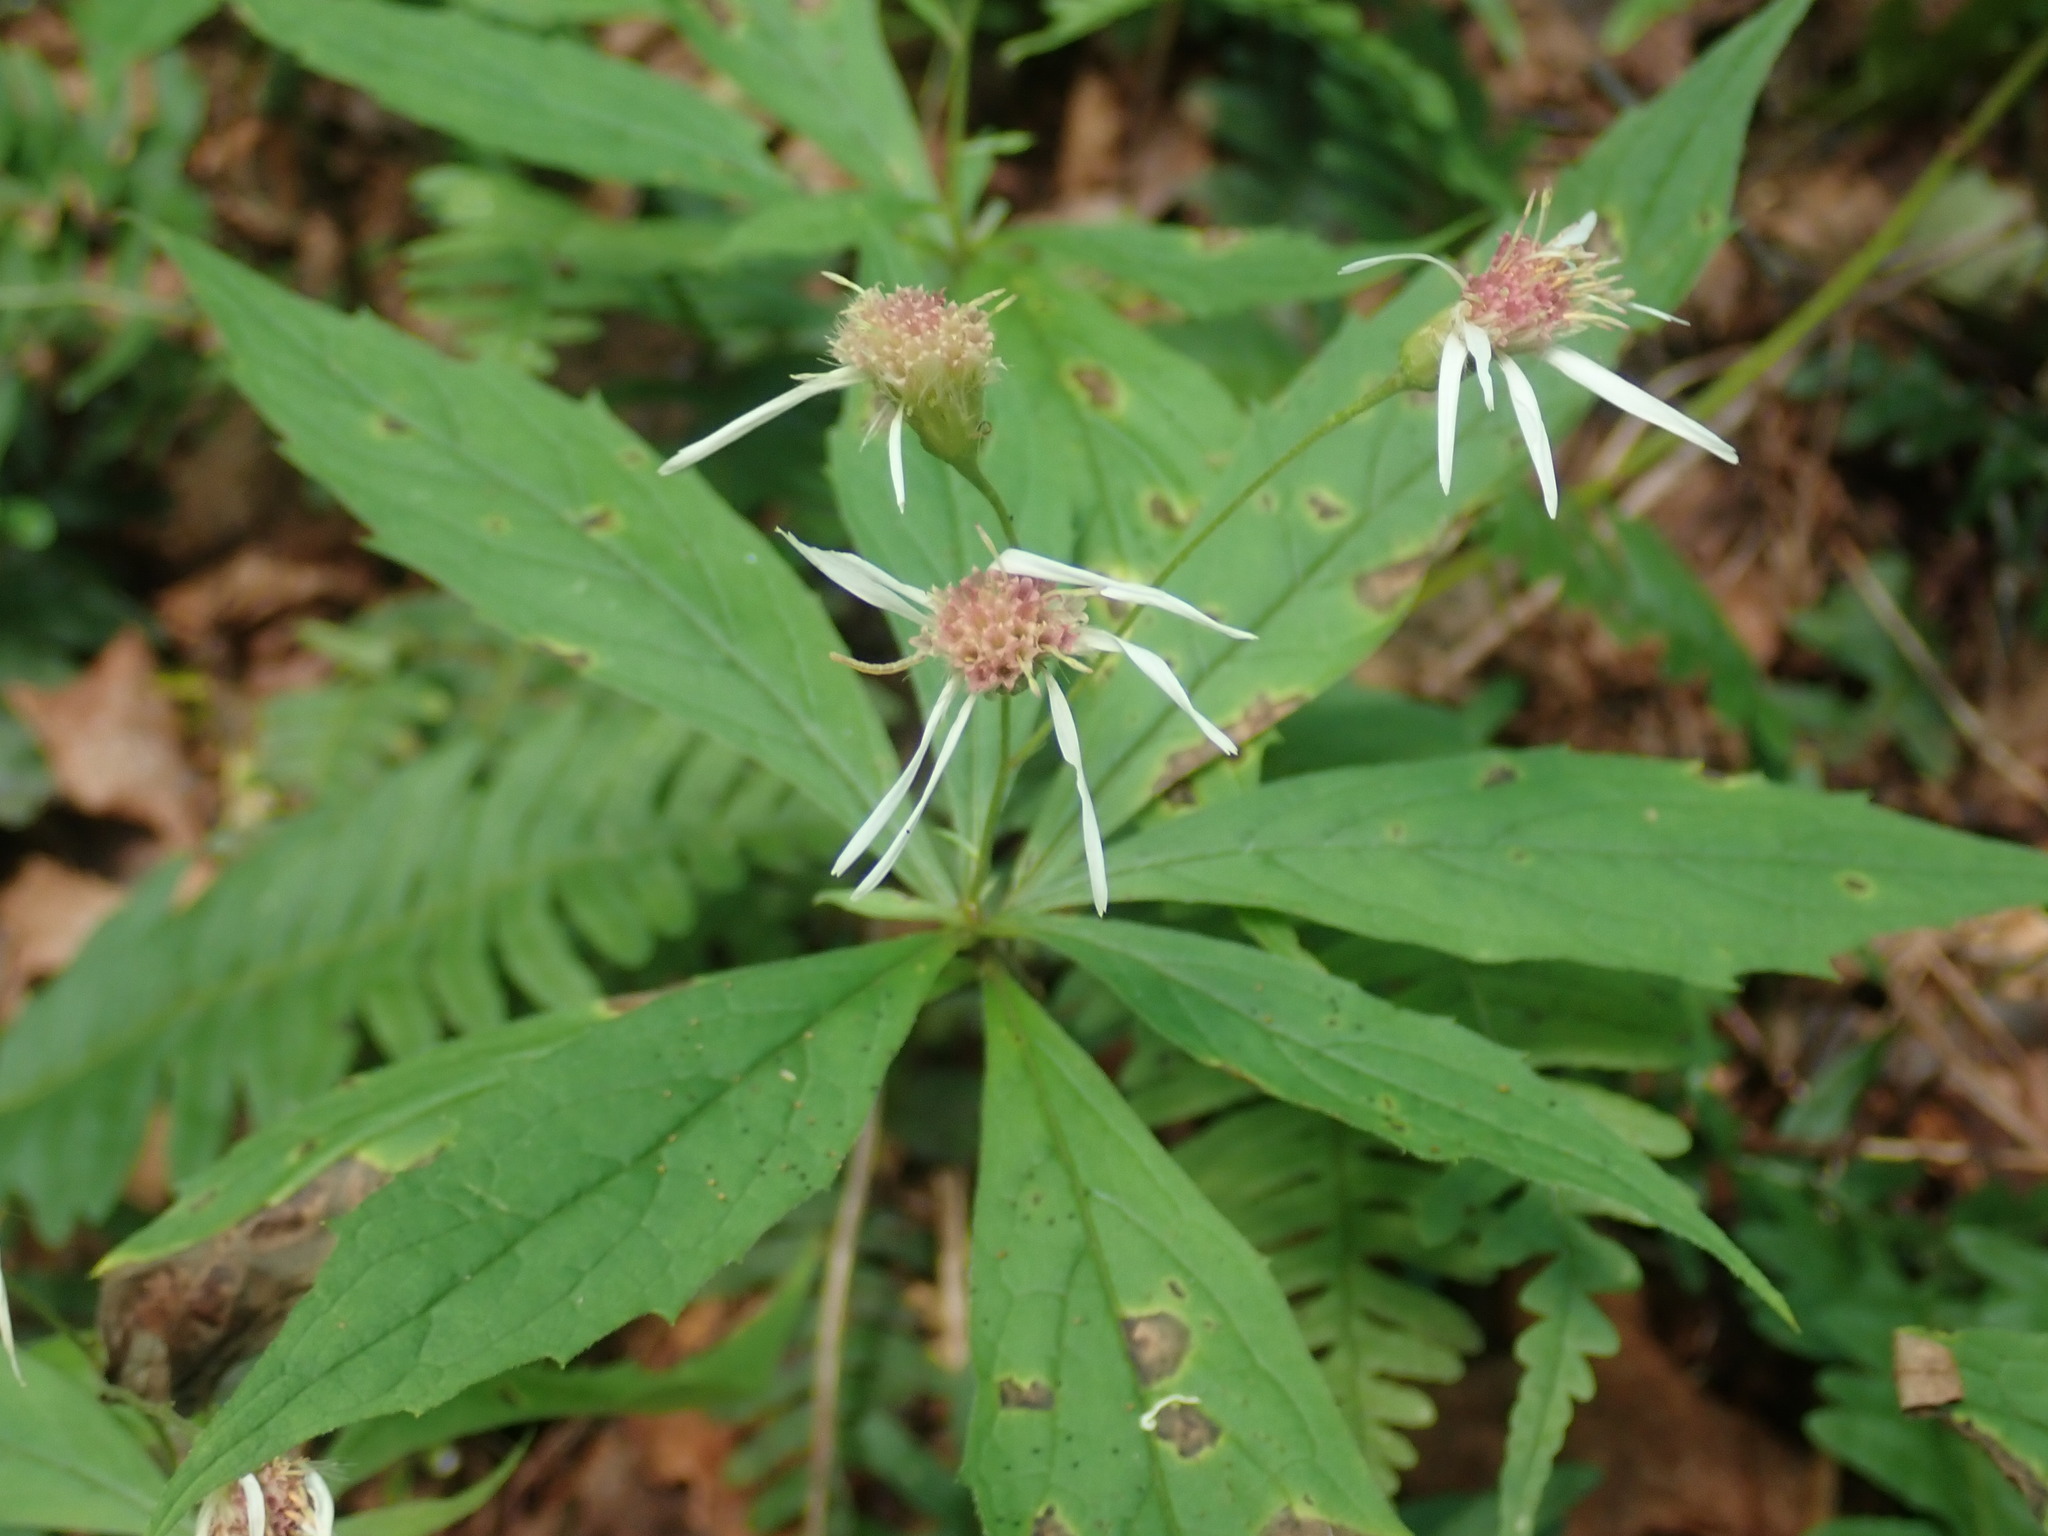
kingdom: Plantae
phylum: Tracheophyta
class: Magnoliopsida
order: Asterales
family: Asteraceae
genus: Oclemena
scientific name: Oclemena acuminata
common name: Mountain aster
